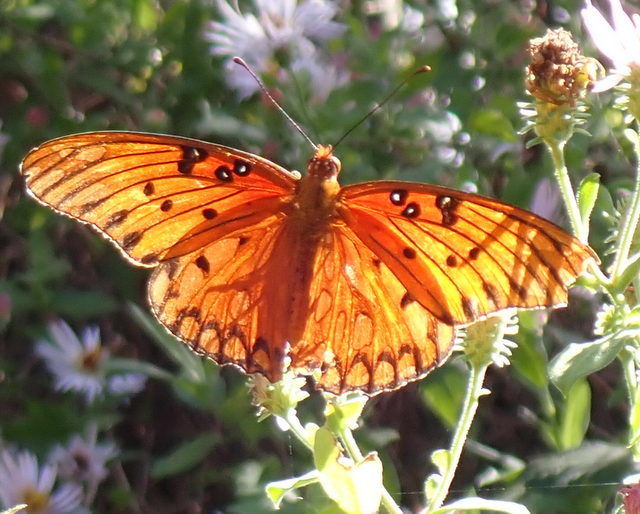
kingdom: Animalia
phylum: Arthropoda
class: Insecta
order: Lepidoptera
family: Nymphalidae
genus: Dione
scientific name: Dione vanillae
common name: Gulf fritillary
